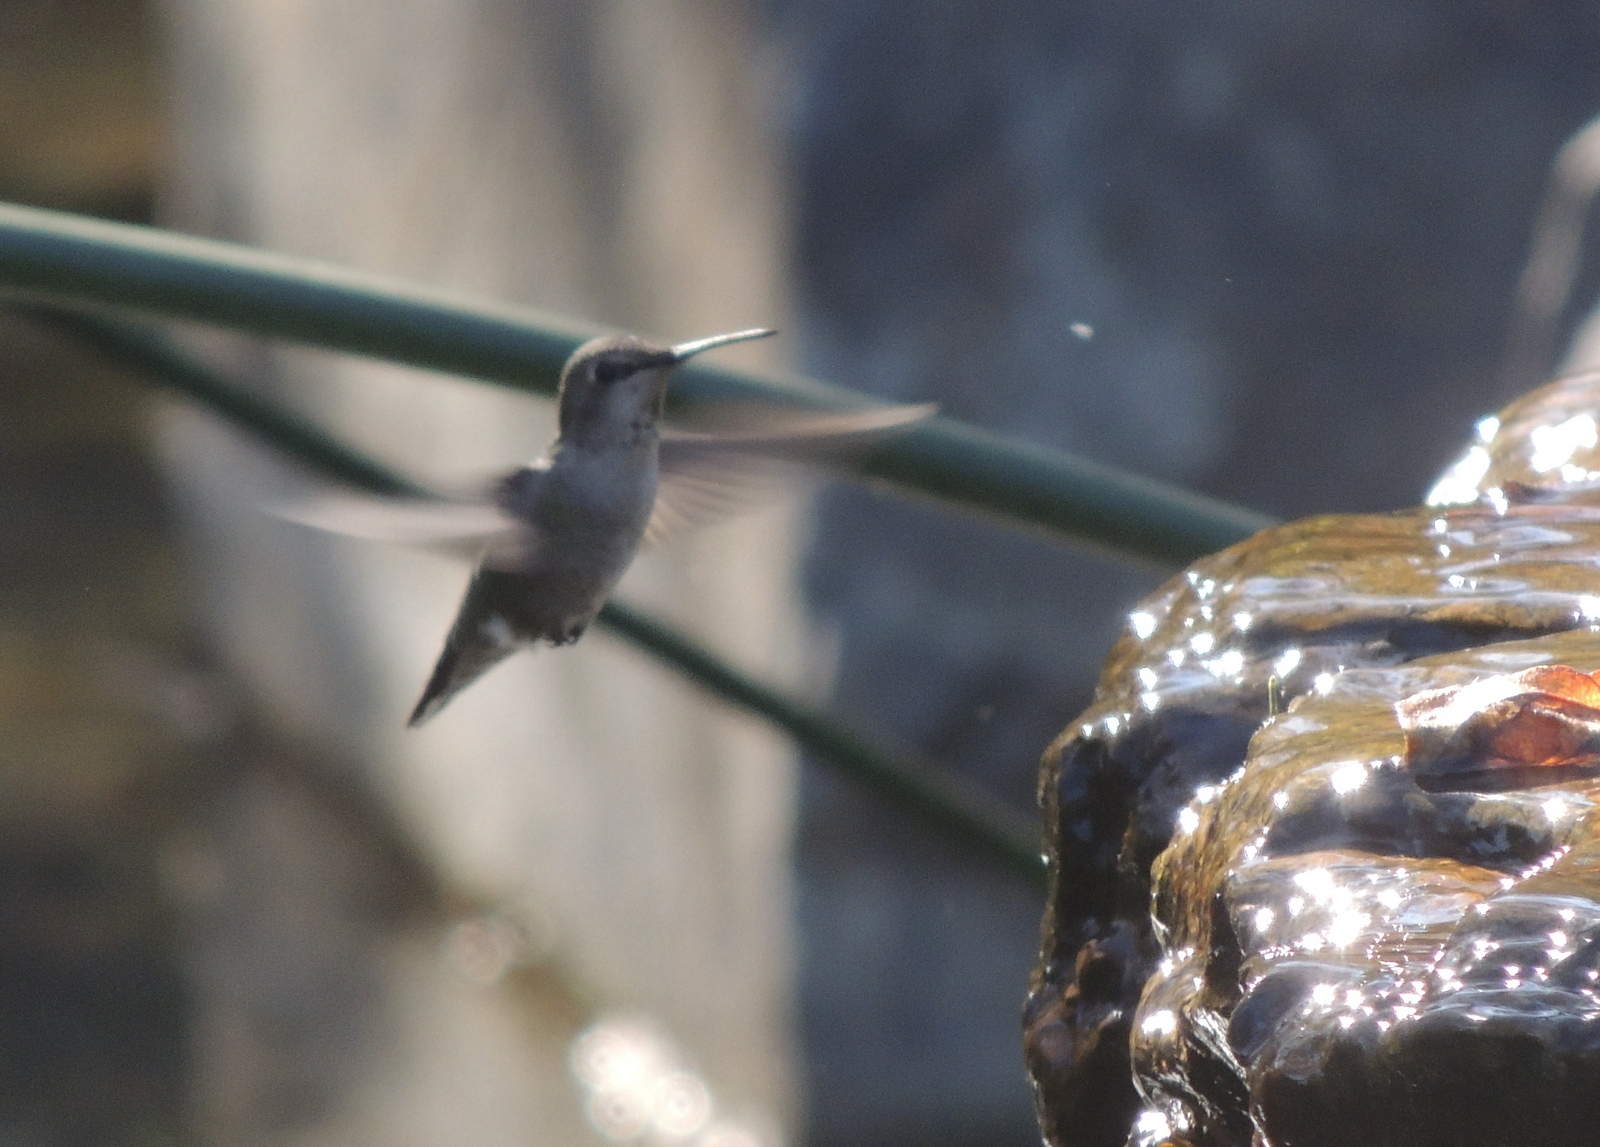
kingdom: Animalia
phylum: Chordata
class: Aves
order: Apodiformes
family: Trochilidae
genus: Calypte
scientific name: Calypte anna
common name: Anna's hummingbird
